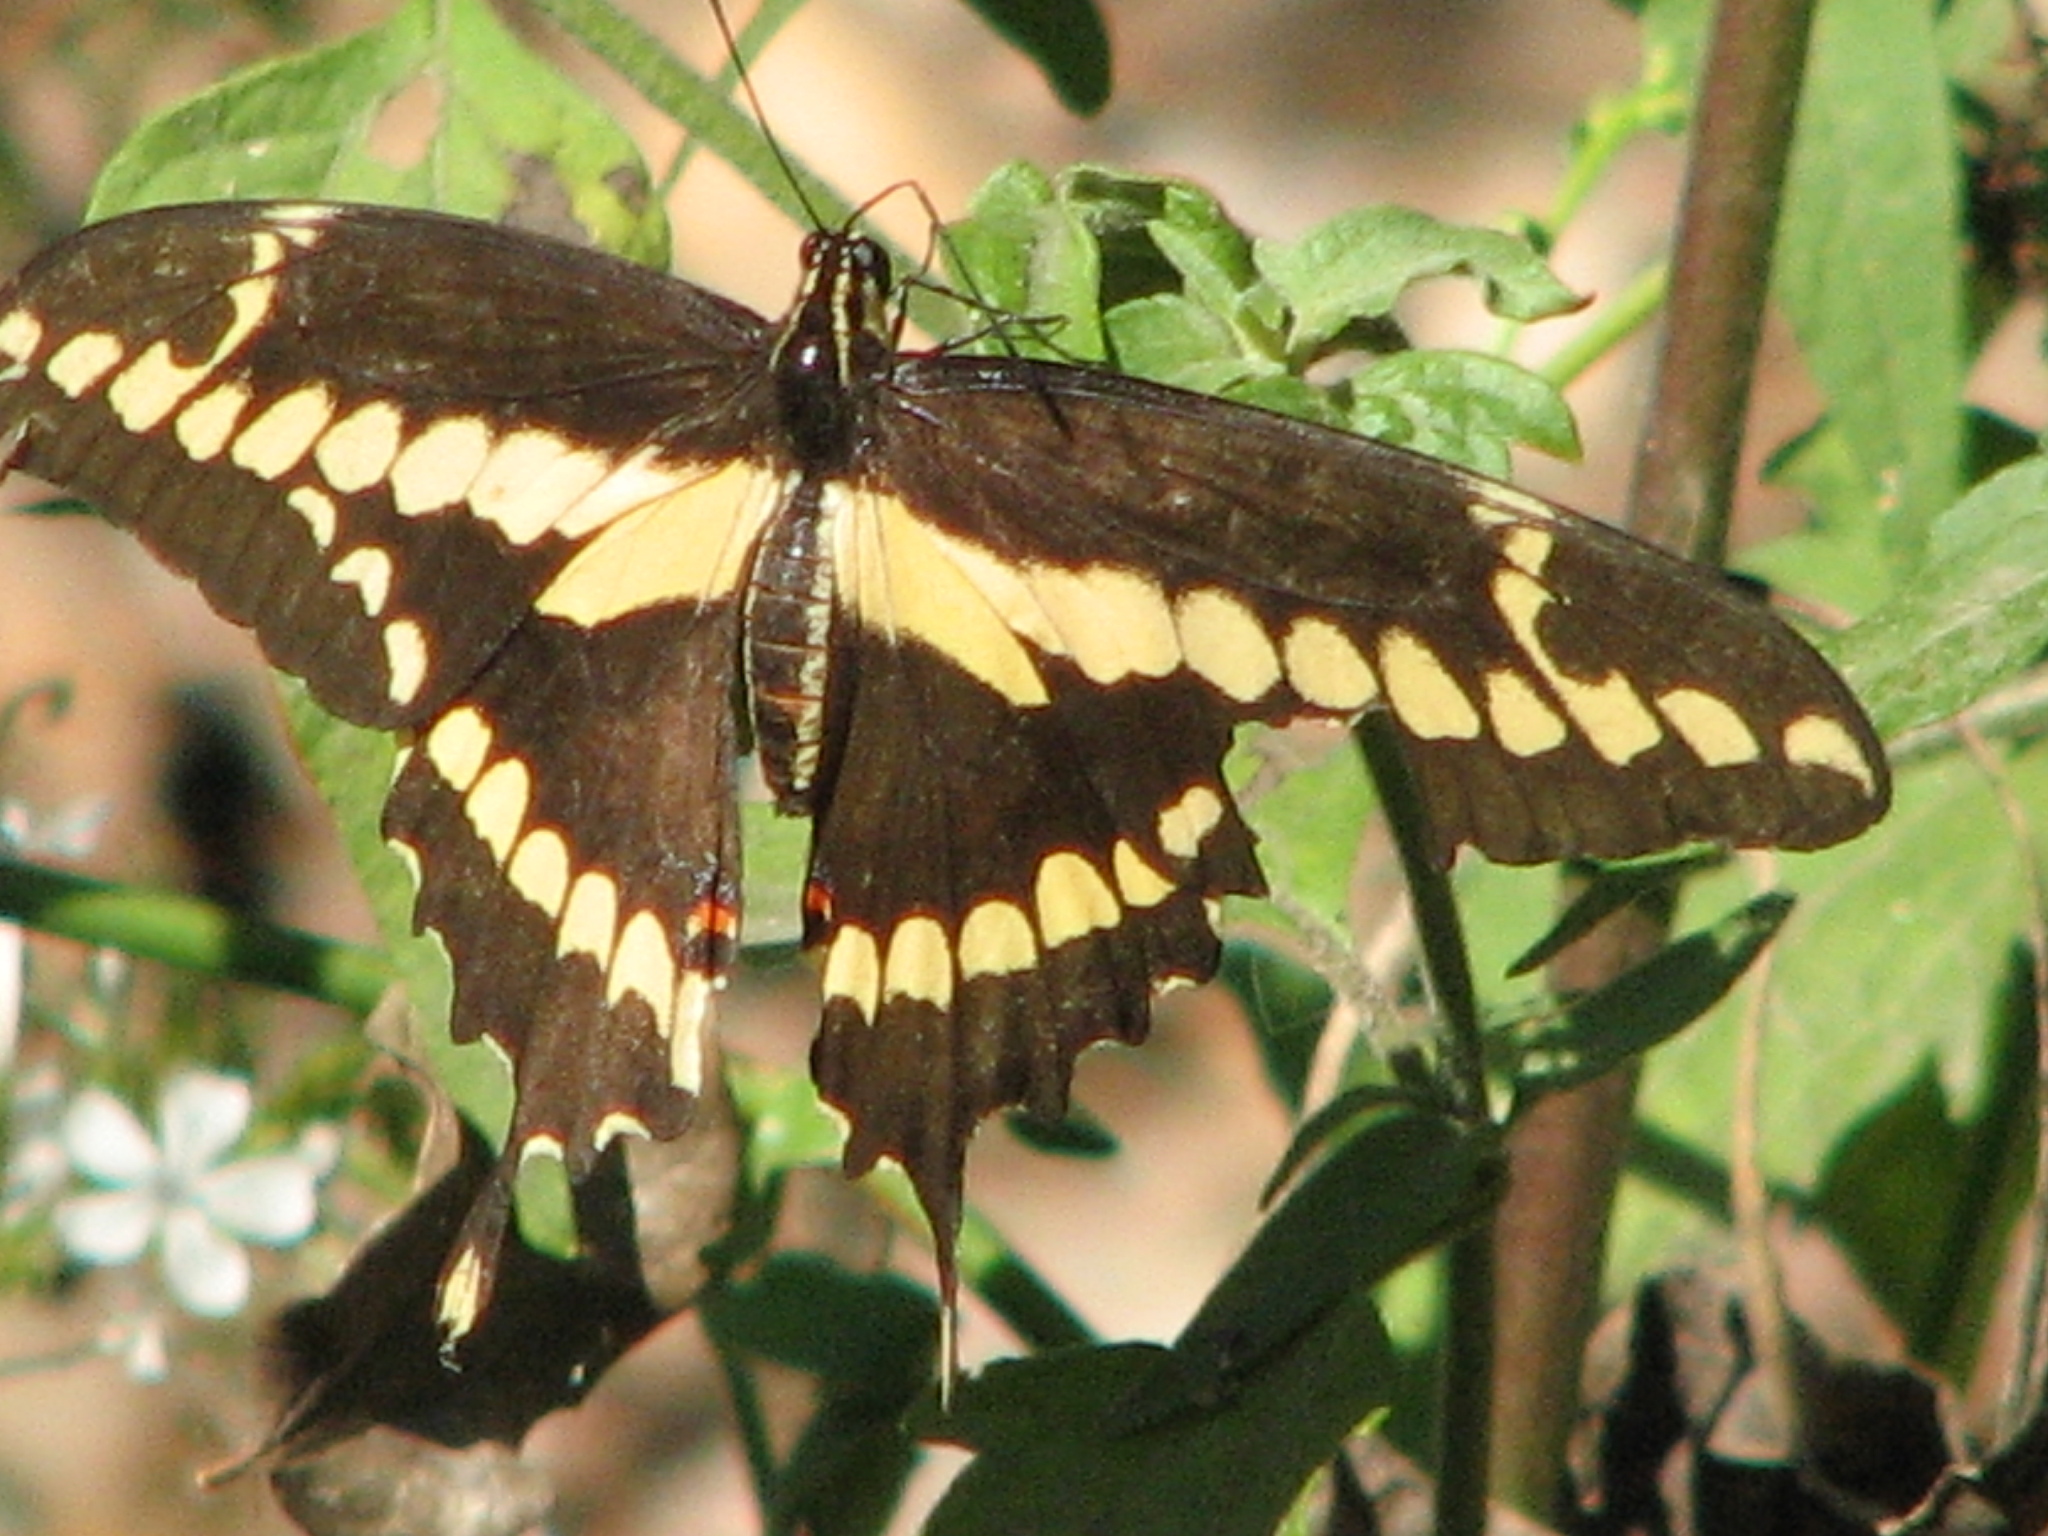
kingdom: Animalia
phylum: Arthropoda
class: Insecta
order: Lepidoptera
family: Papilionidae
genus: Papilio
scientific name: Papilio rumiko
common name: Western giant swallowtail
